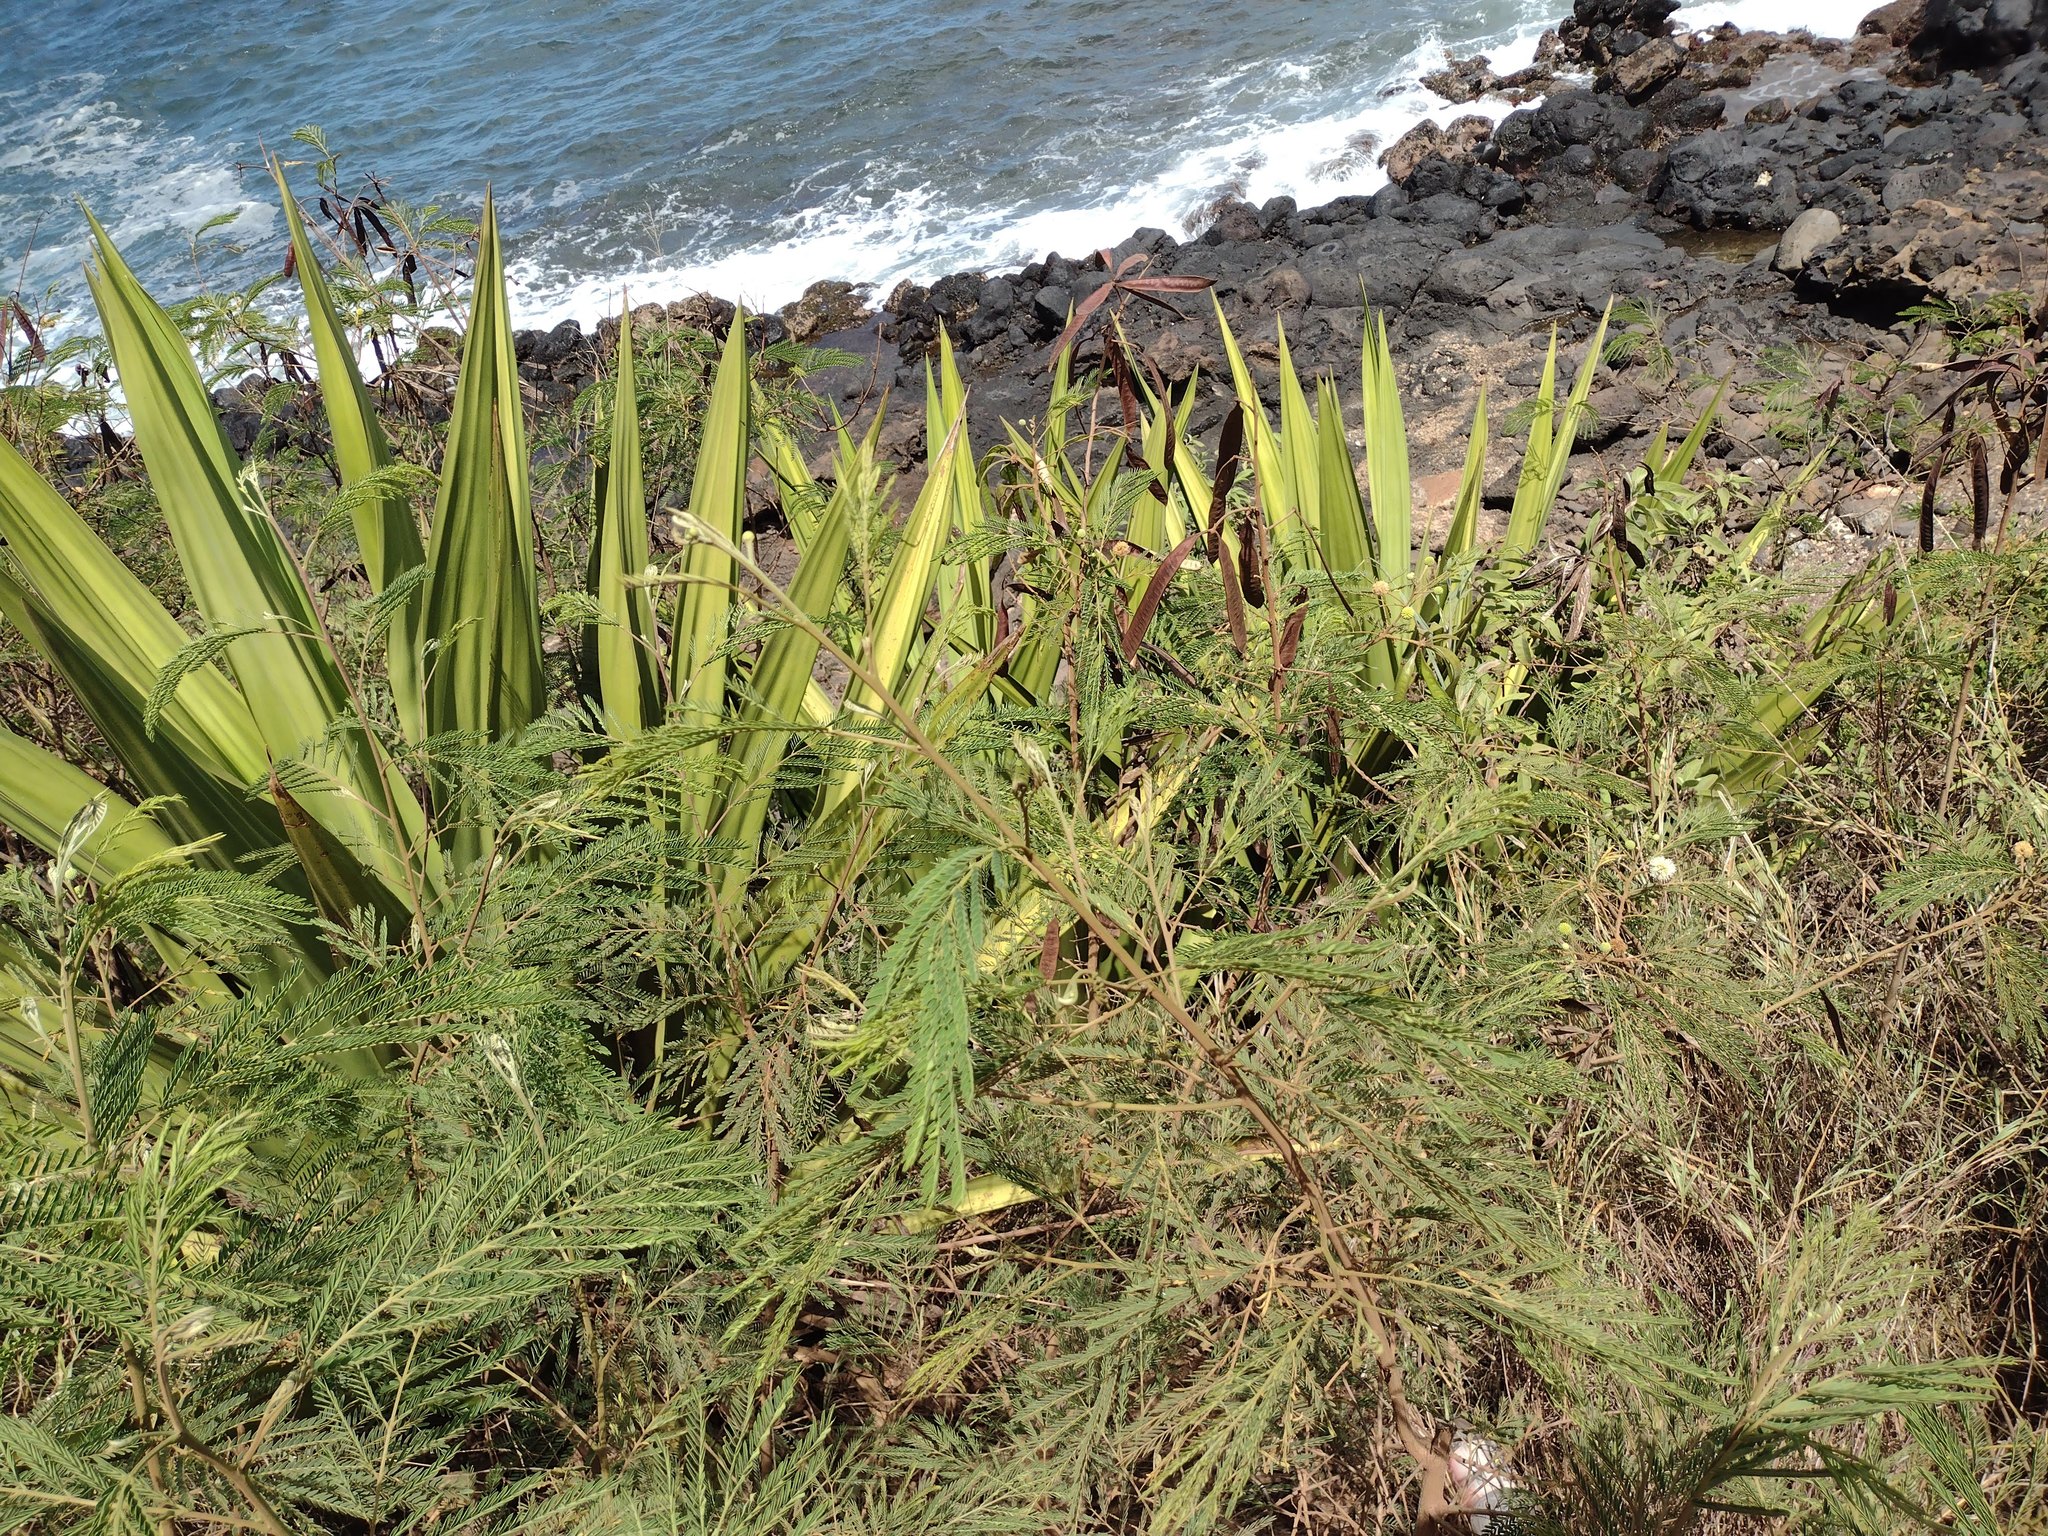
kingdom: Plantae
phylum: Tracheophyta
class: Liliopsida
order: Asparagales
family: Asparagaceae
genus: Furcraea
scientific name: Furcraea foetida
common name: Mauritius hemp
